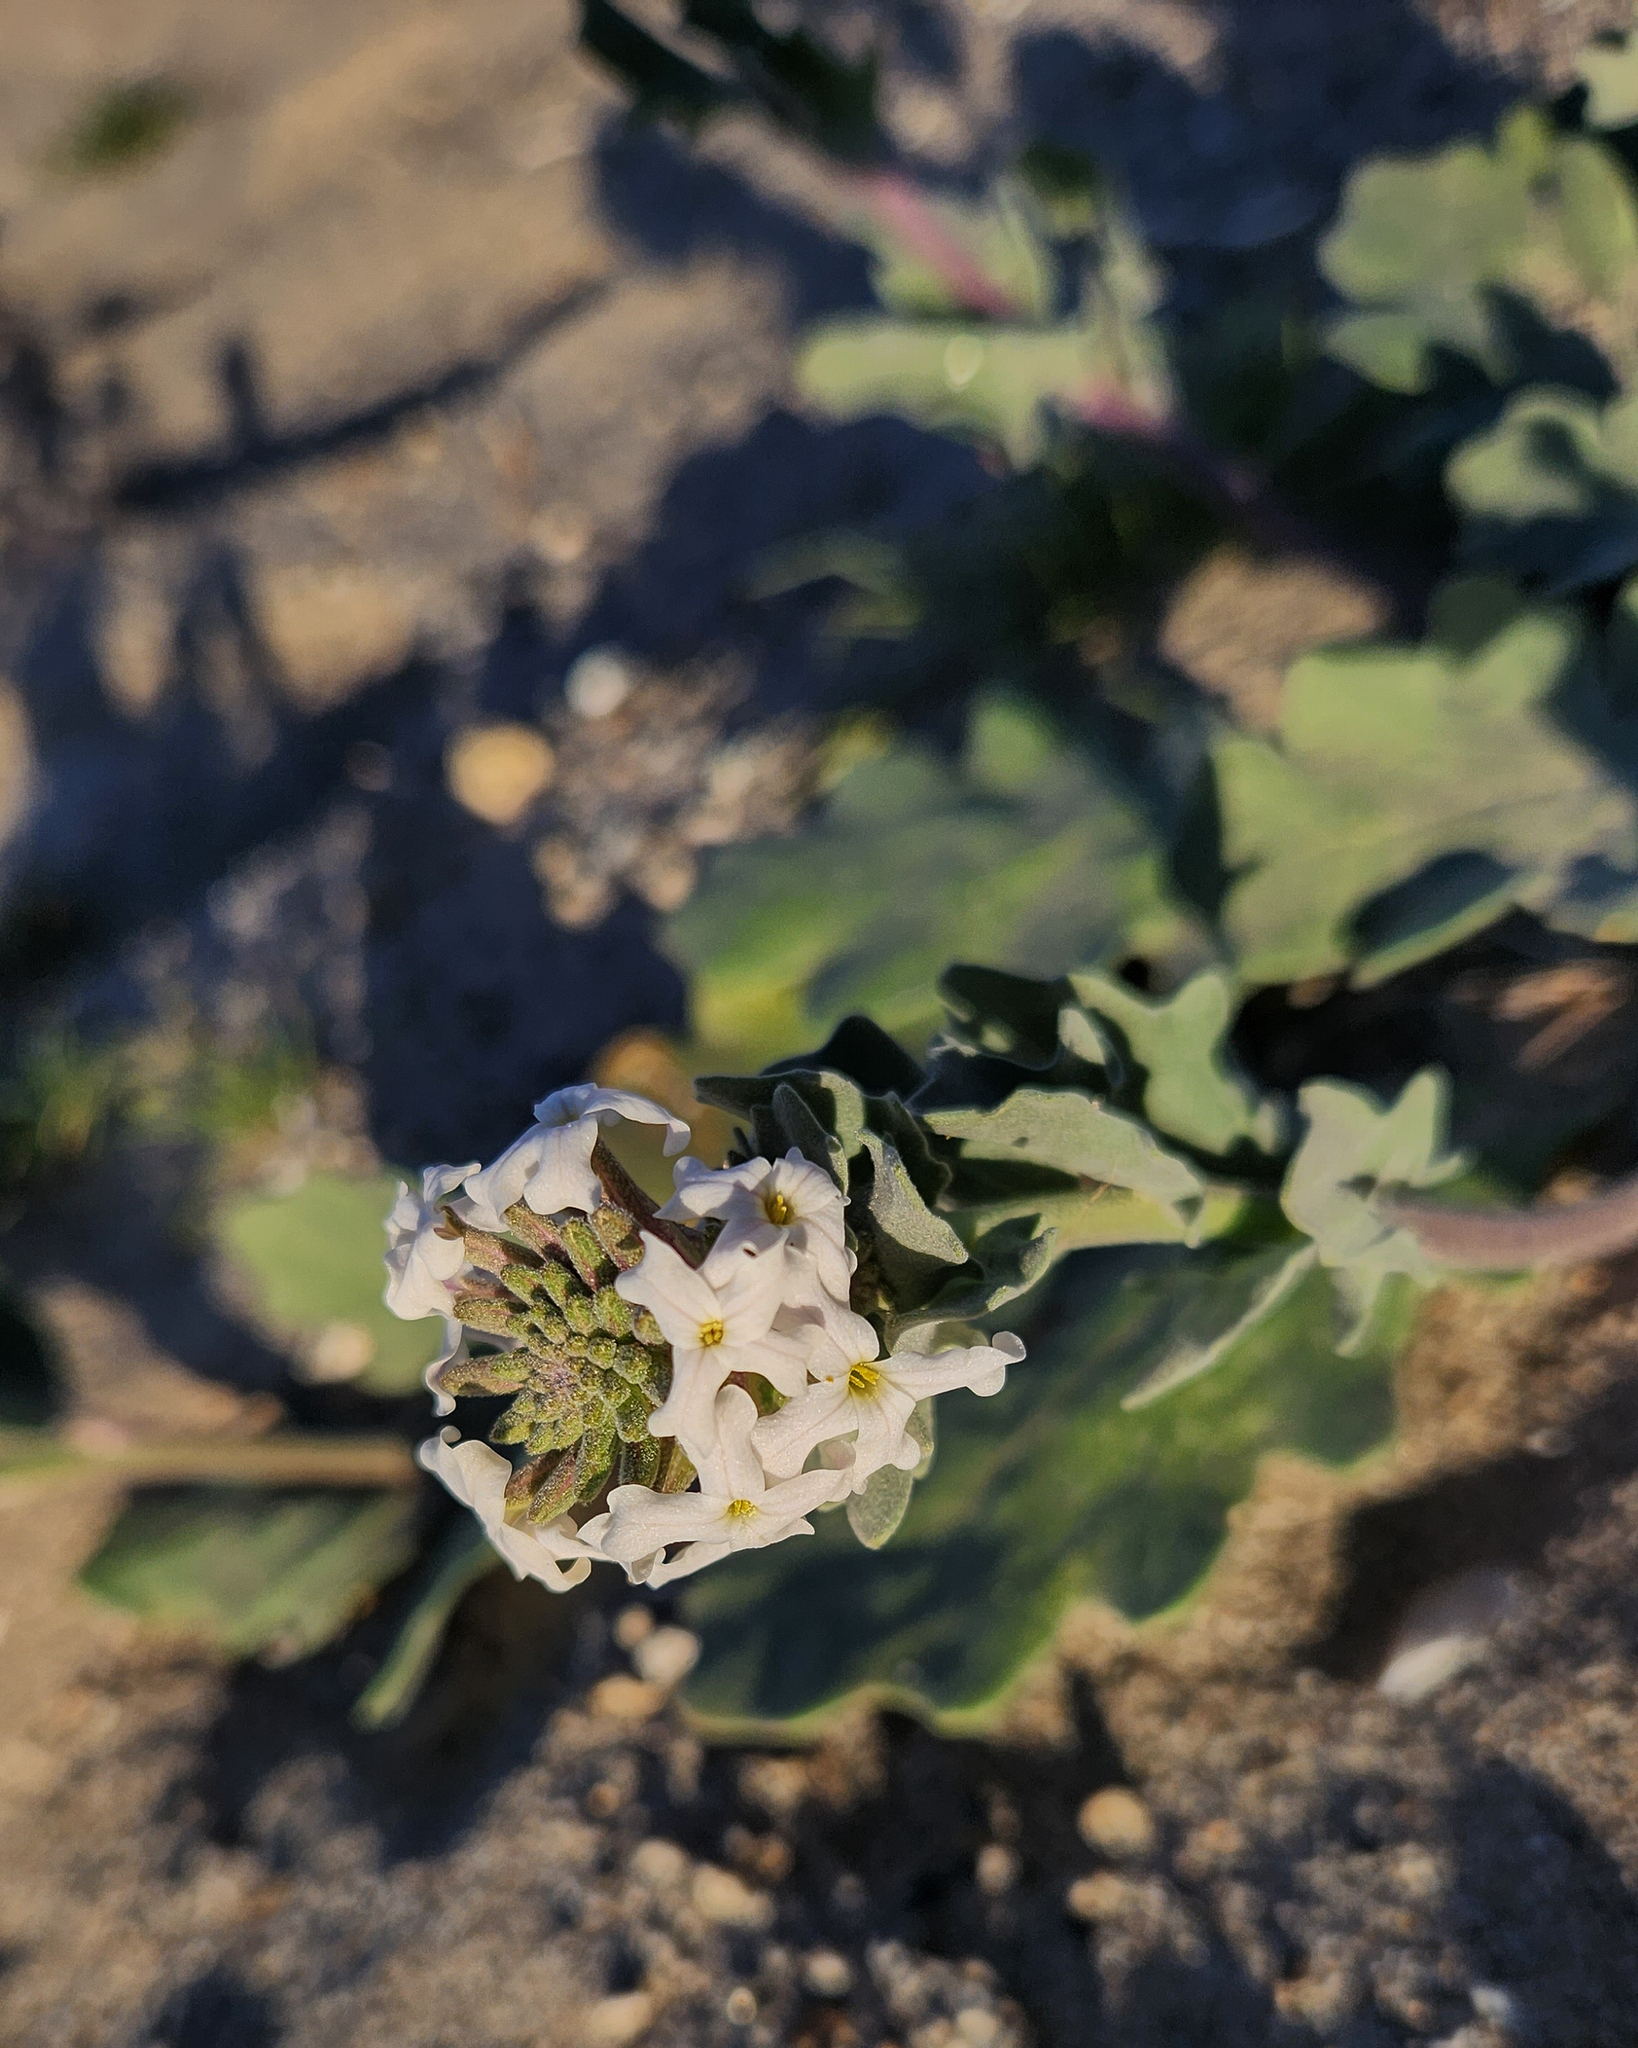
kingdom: Plantae
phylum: Tracheophyta
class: Magnoliopsida
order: Brassicales
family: Brassicaceae
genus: Dithyrea
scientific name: Dithyrea californica
